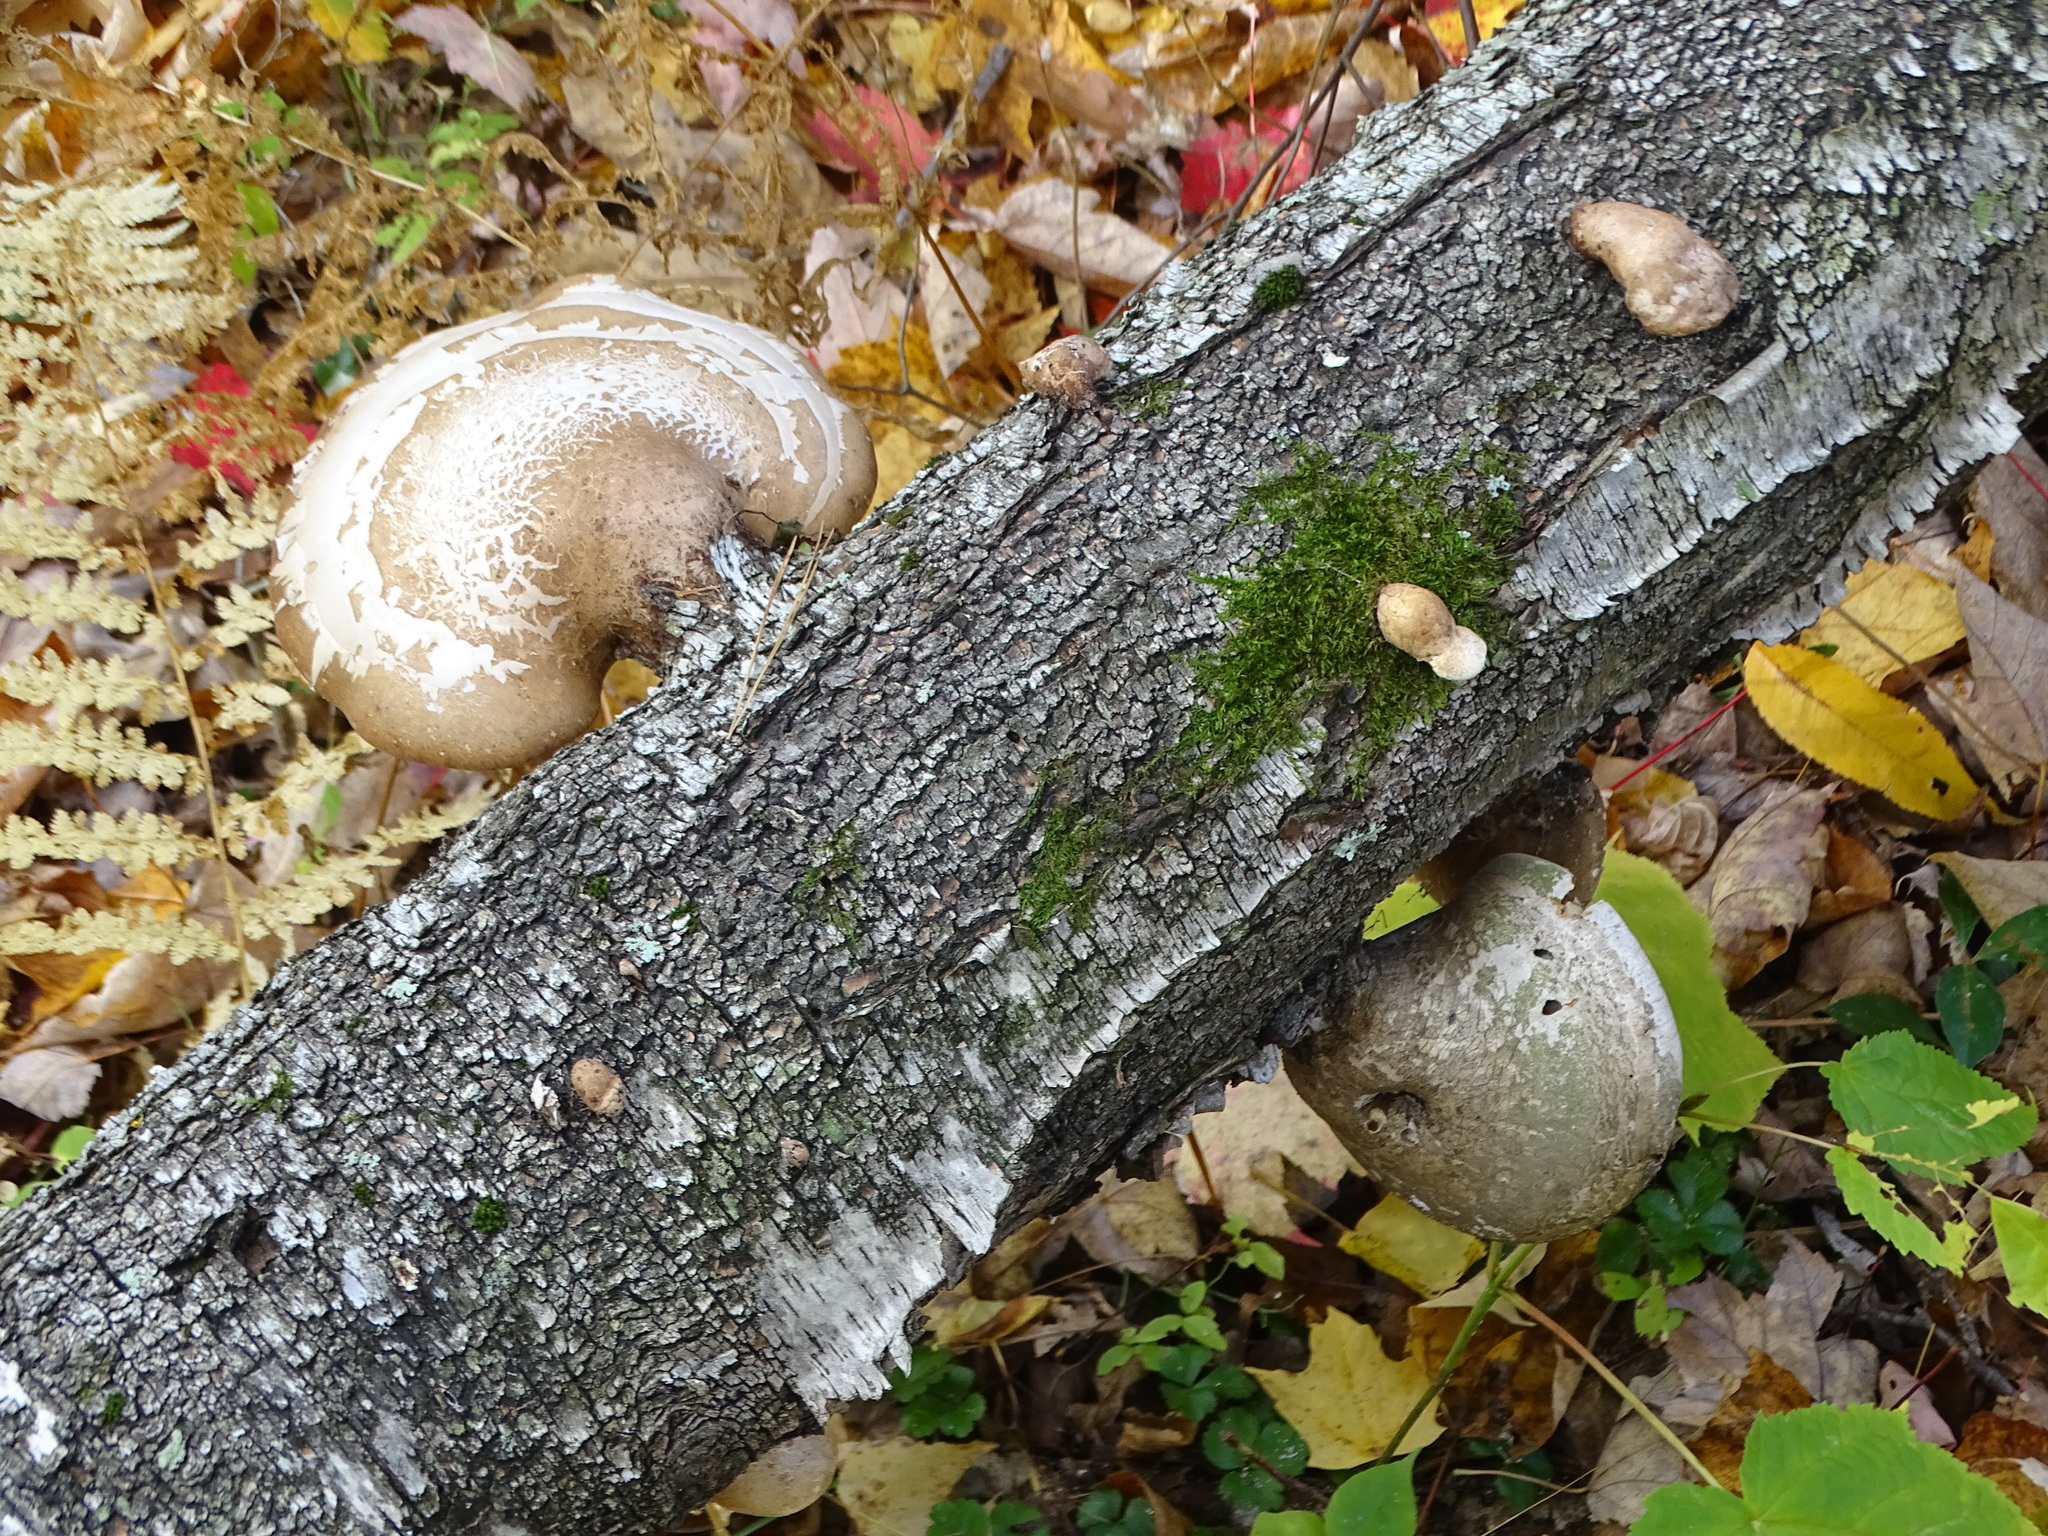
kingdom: Fungi
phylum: Basidiomycota
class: Agaricomycetes
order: Polyporales
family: Fomitopsidaceae
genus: Fomitopsis
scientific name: Fomitopsis betulina
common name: Birch polypore
